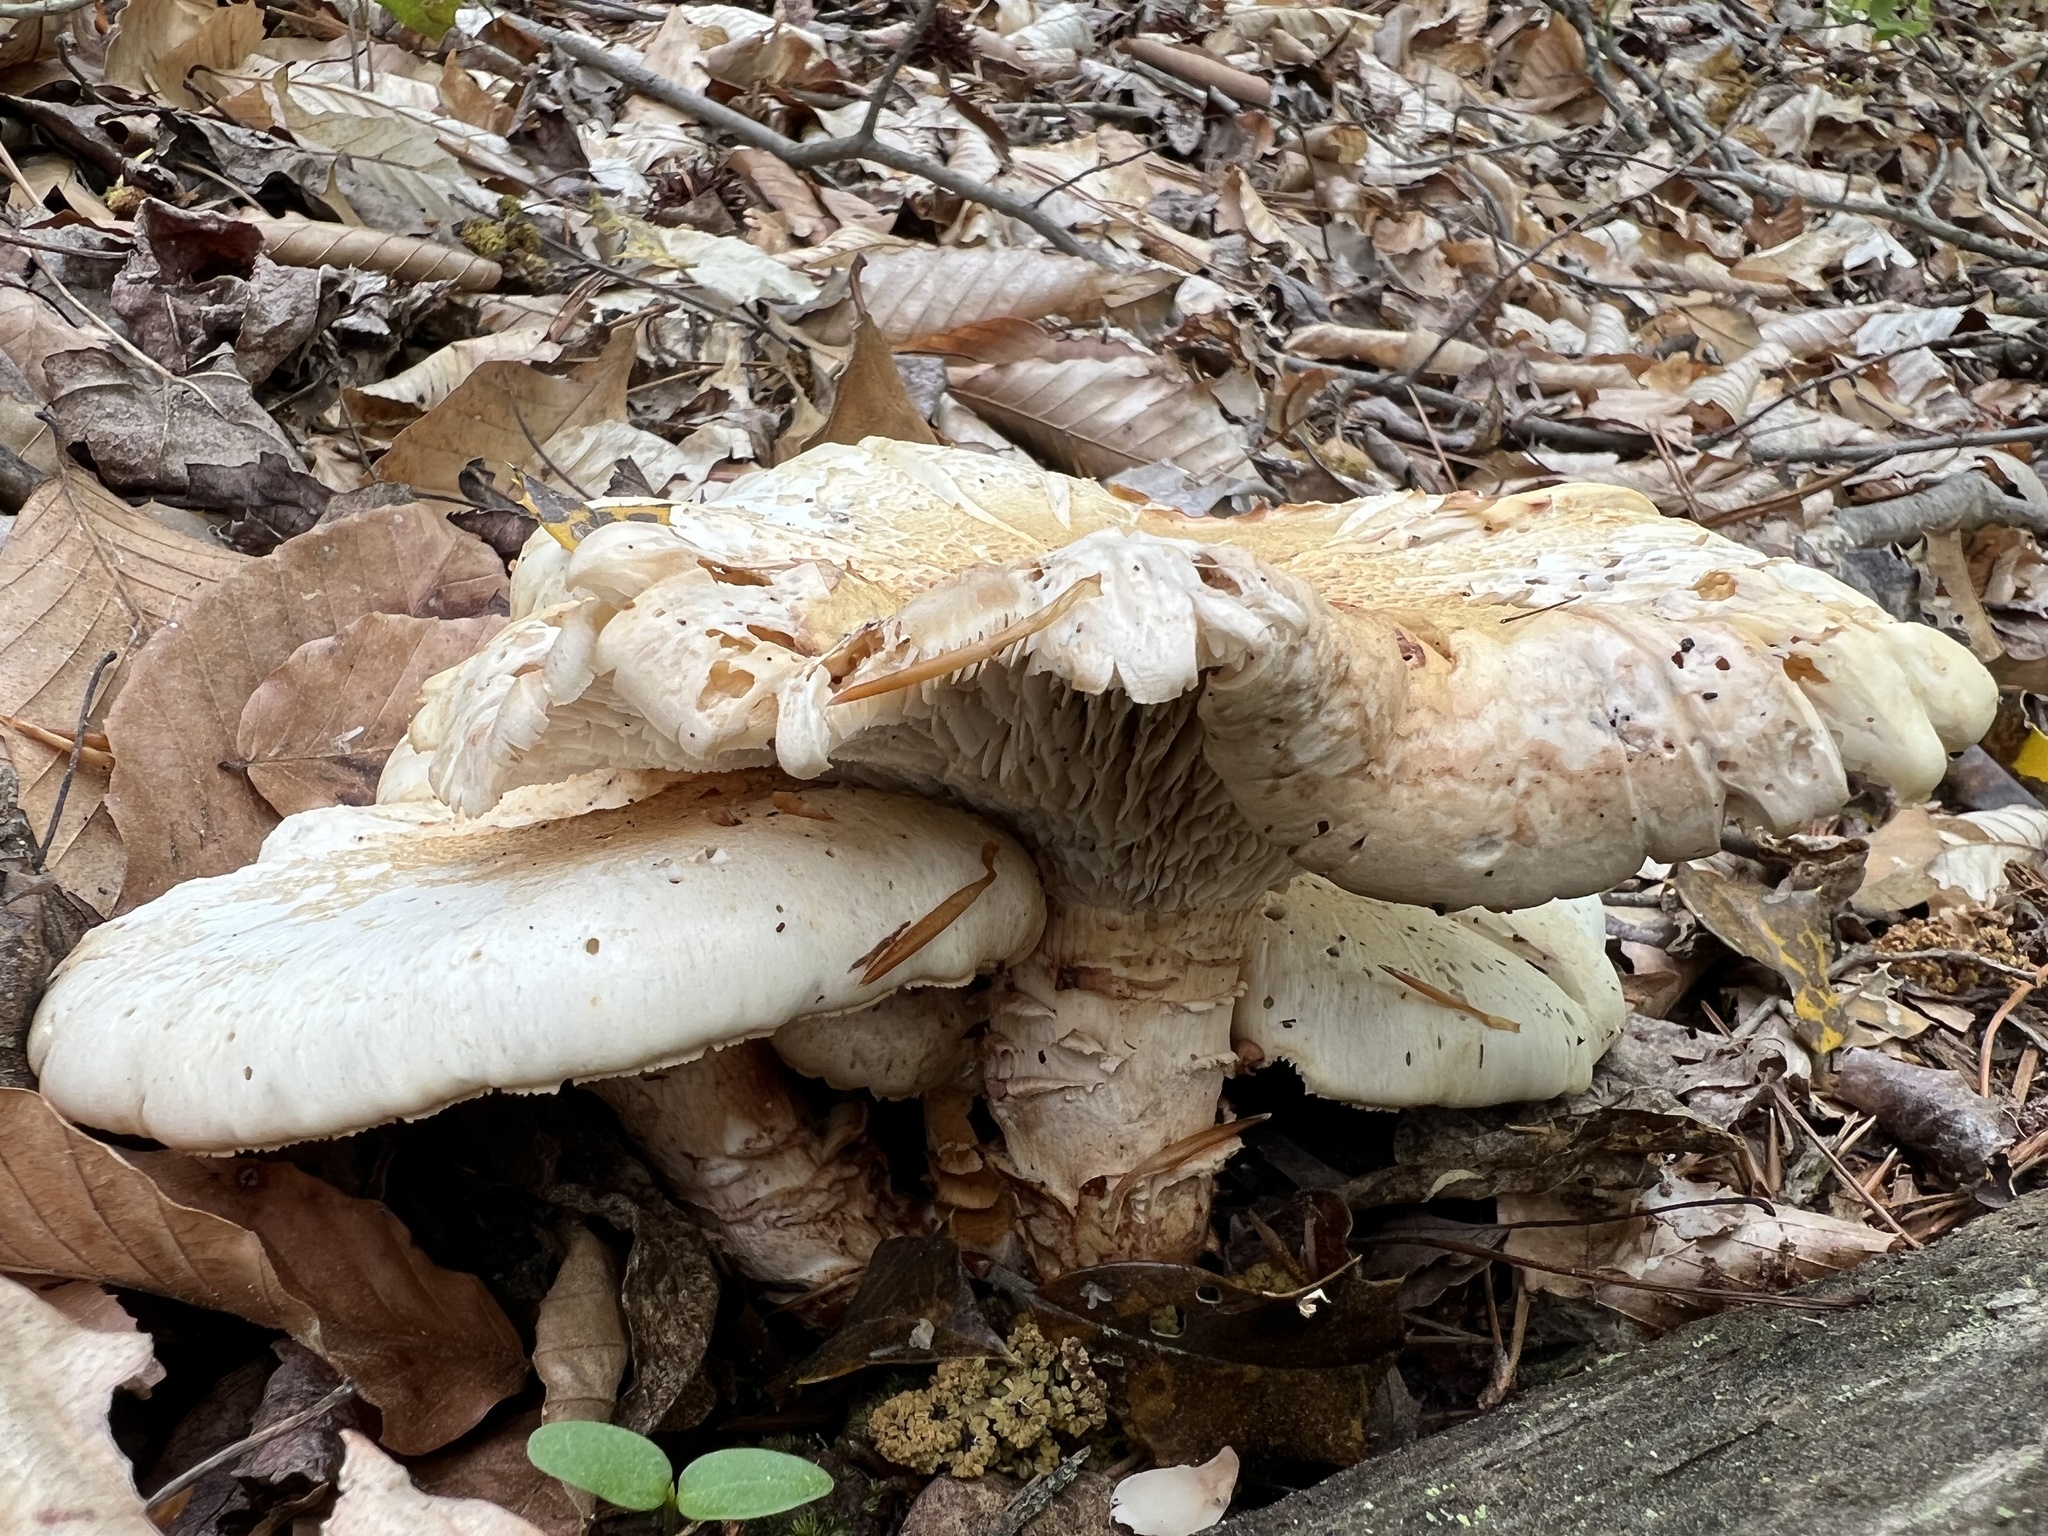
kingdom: Fungi
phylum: Basidiomycota
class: Agaricomycetes
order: Gloeophyllales
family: Gloeophyllaceae
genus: Neolentinus
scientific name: Neolentinus lepideus
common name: Scaly sawgill
